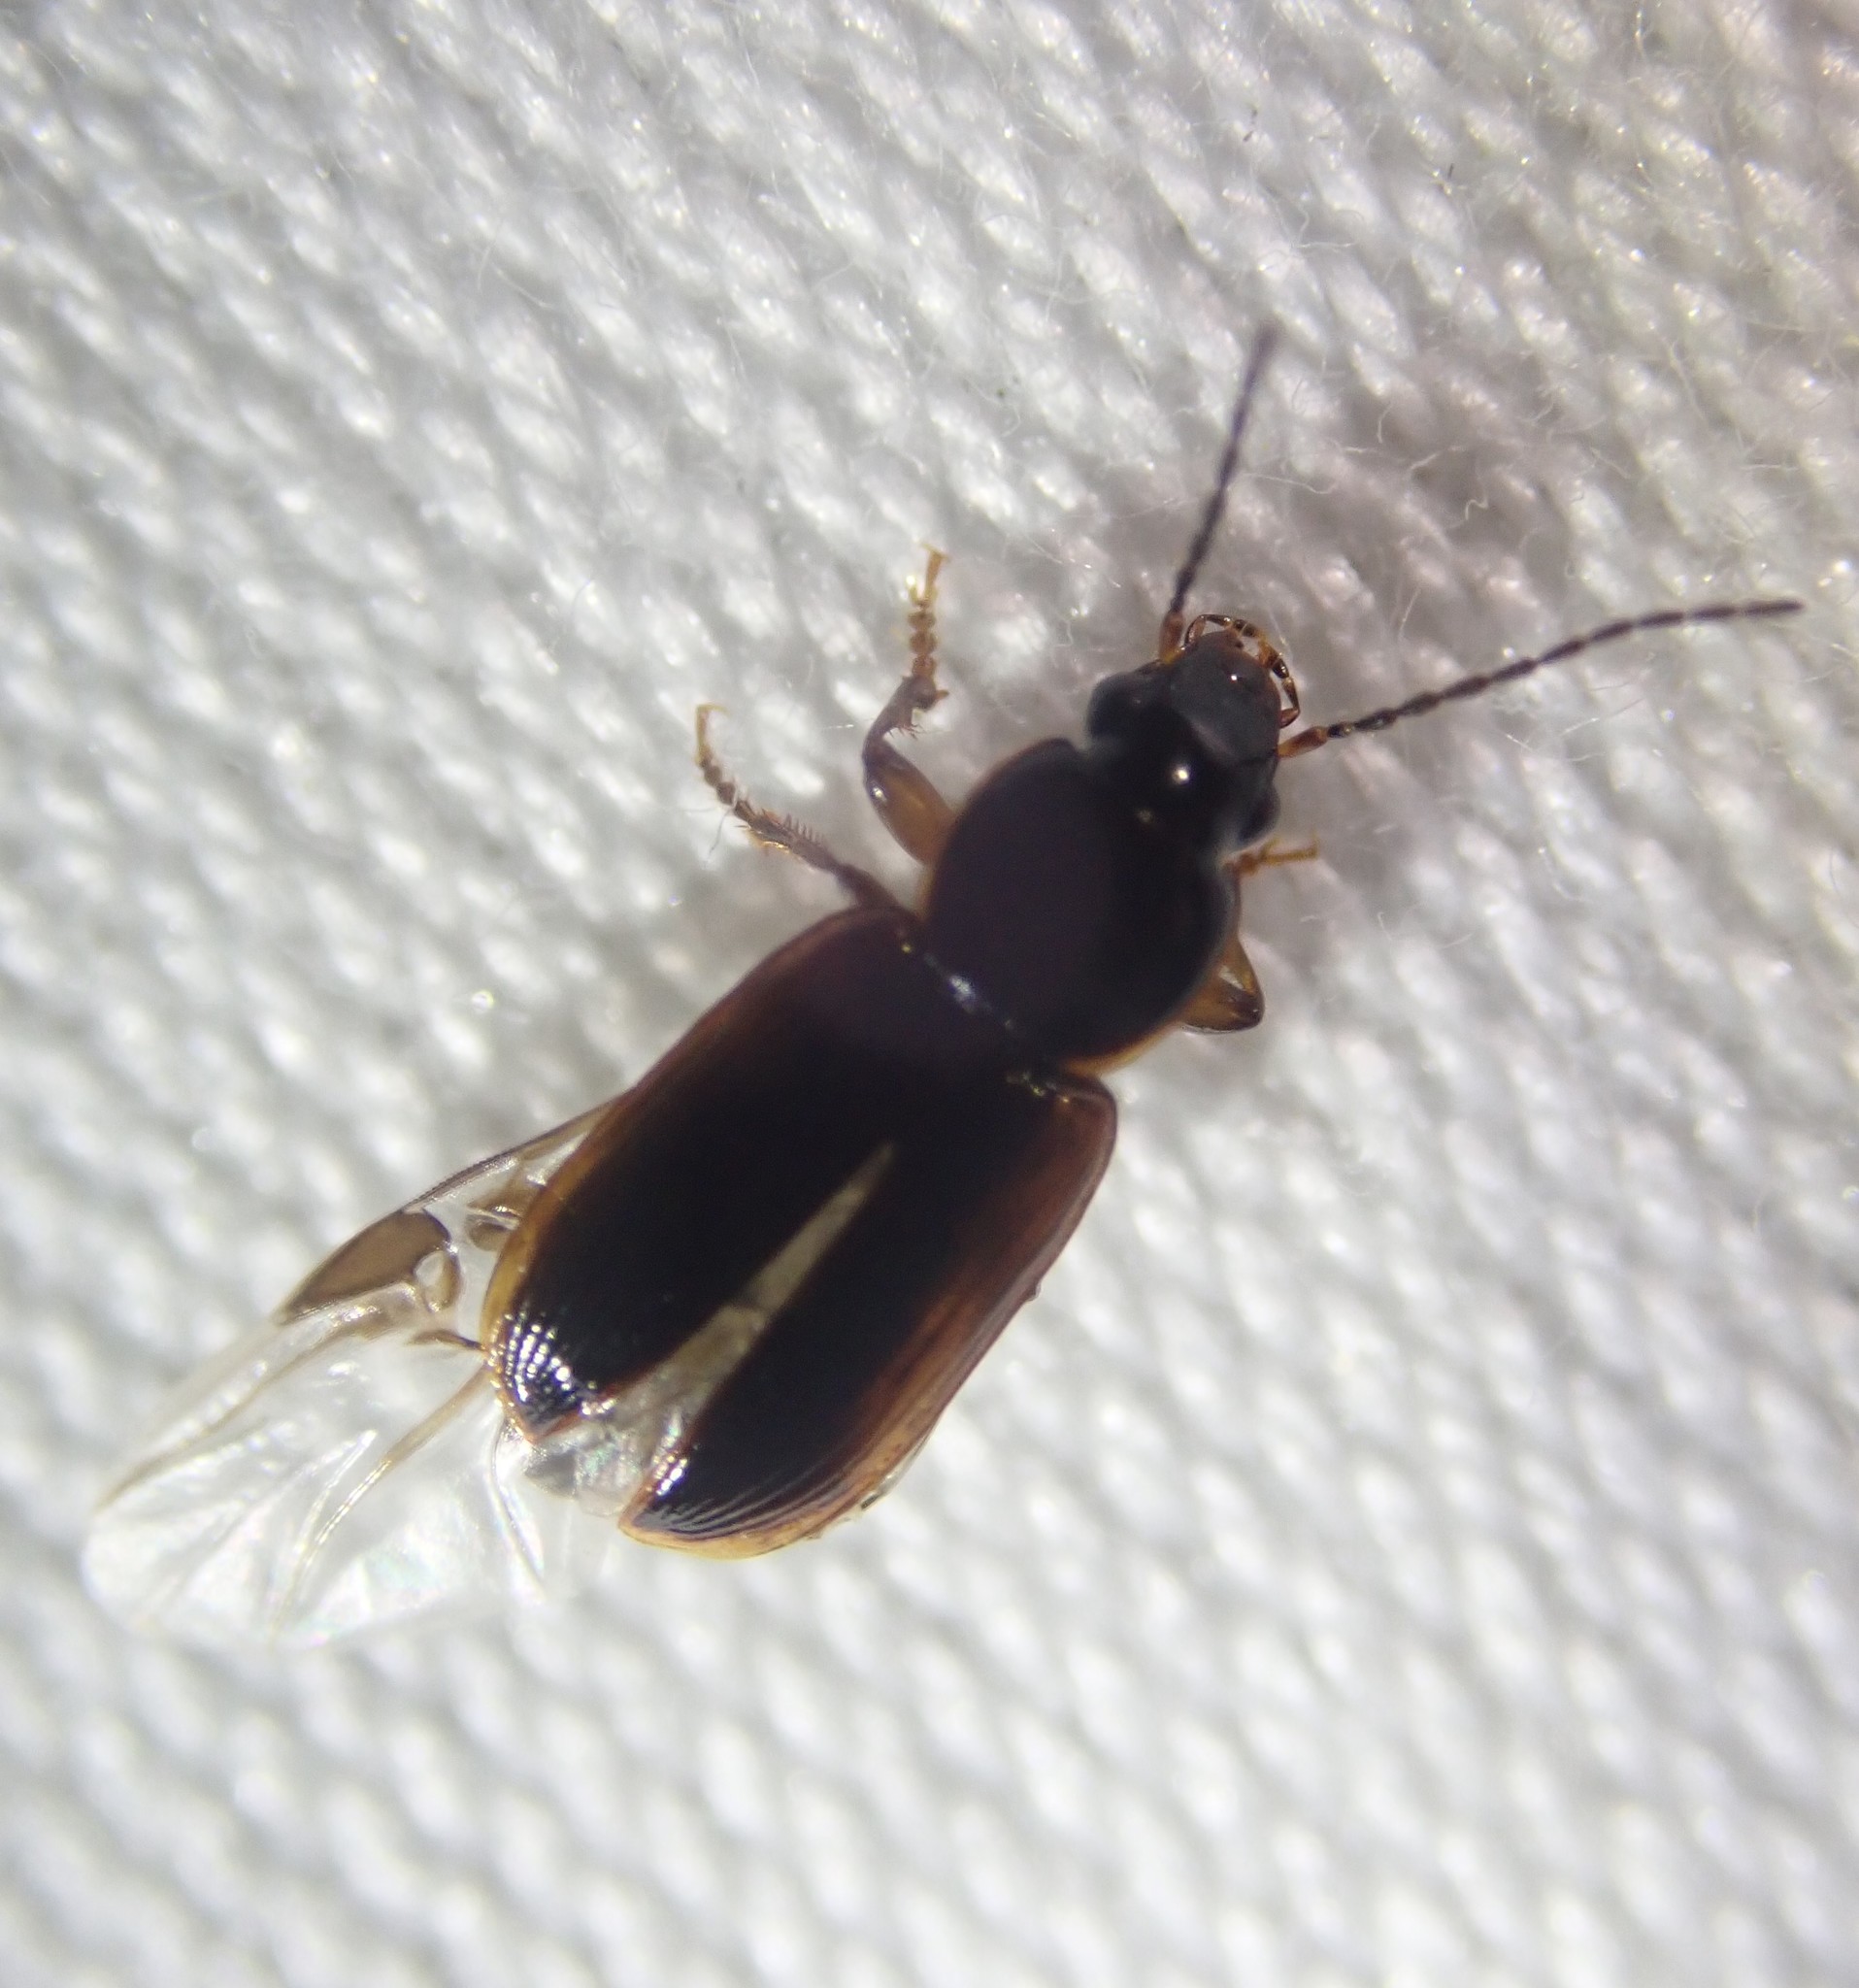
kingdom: Animalia
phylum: Arthropoda
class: Insecta
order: Coleoptera
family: Carabidae
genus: Stenolophus
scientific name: Stenolophus mixtus
